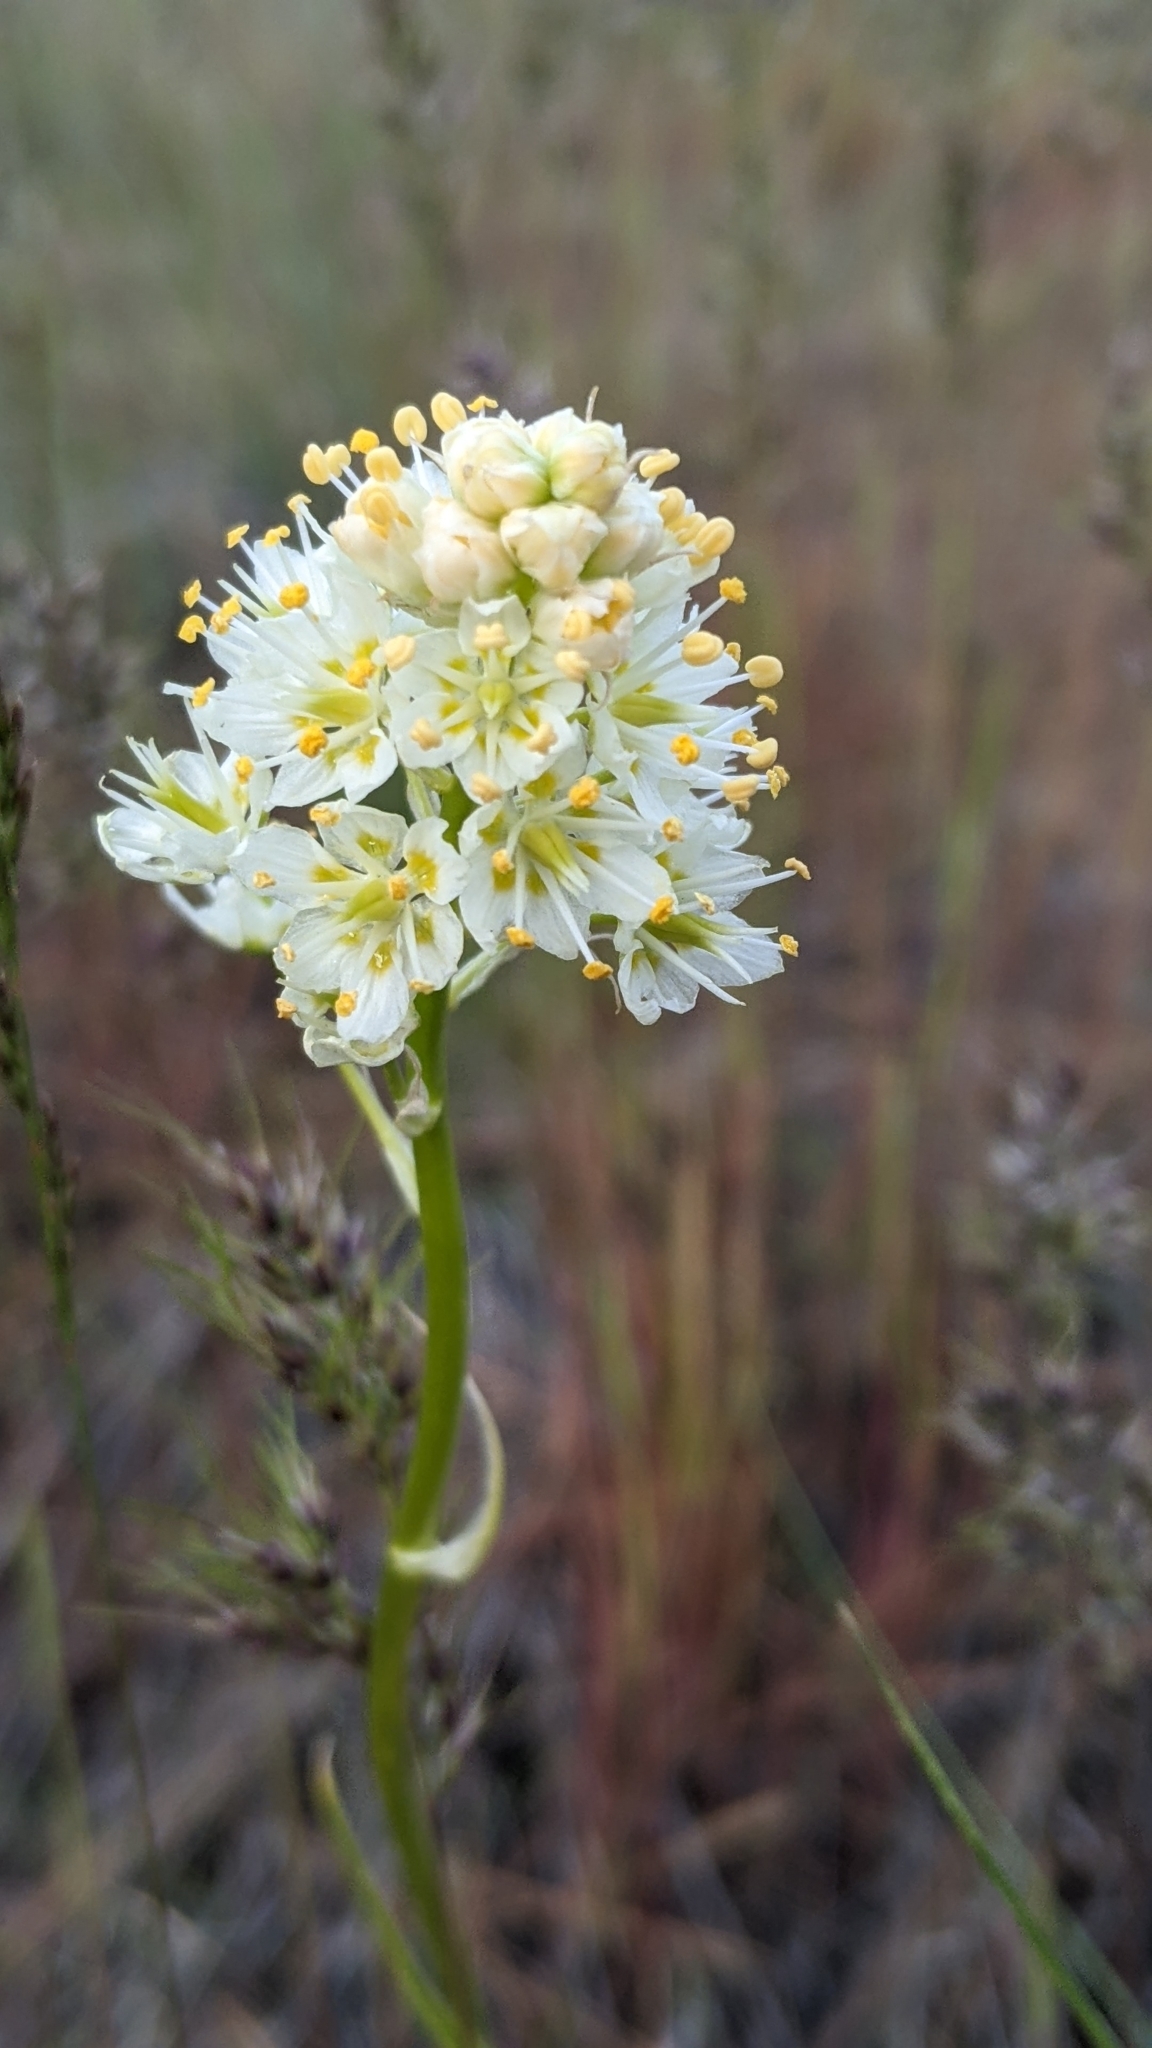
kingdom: Plantae
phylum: Tracheophyta
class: Liliopsida
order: Liliales
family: Melanthiaceae
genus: Toxicoscordion
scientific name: Toxicoscordion venenosum
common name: Meadow death camas
